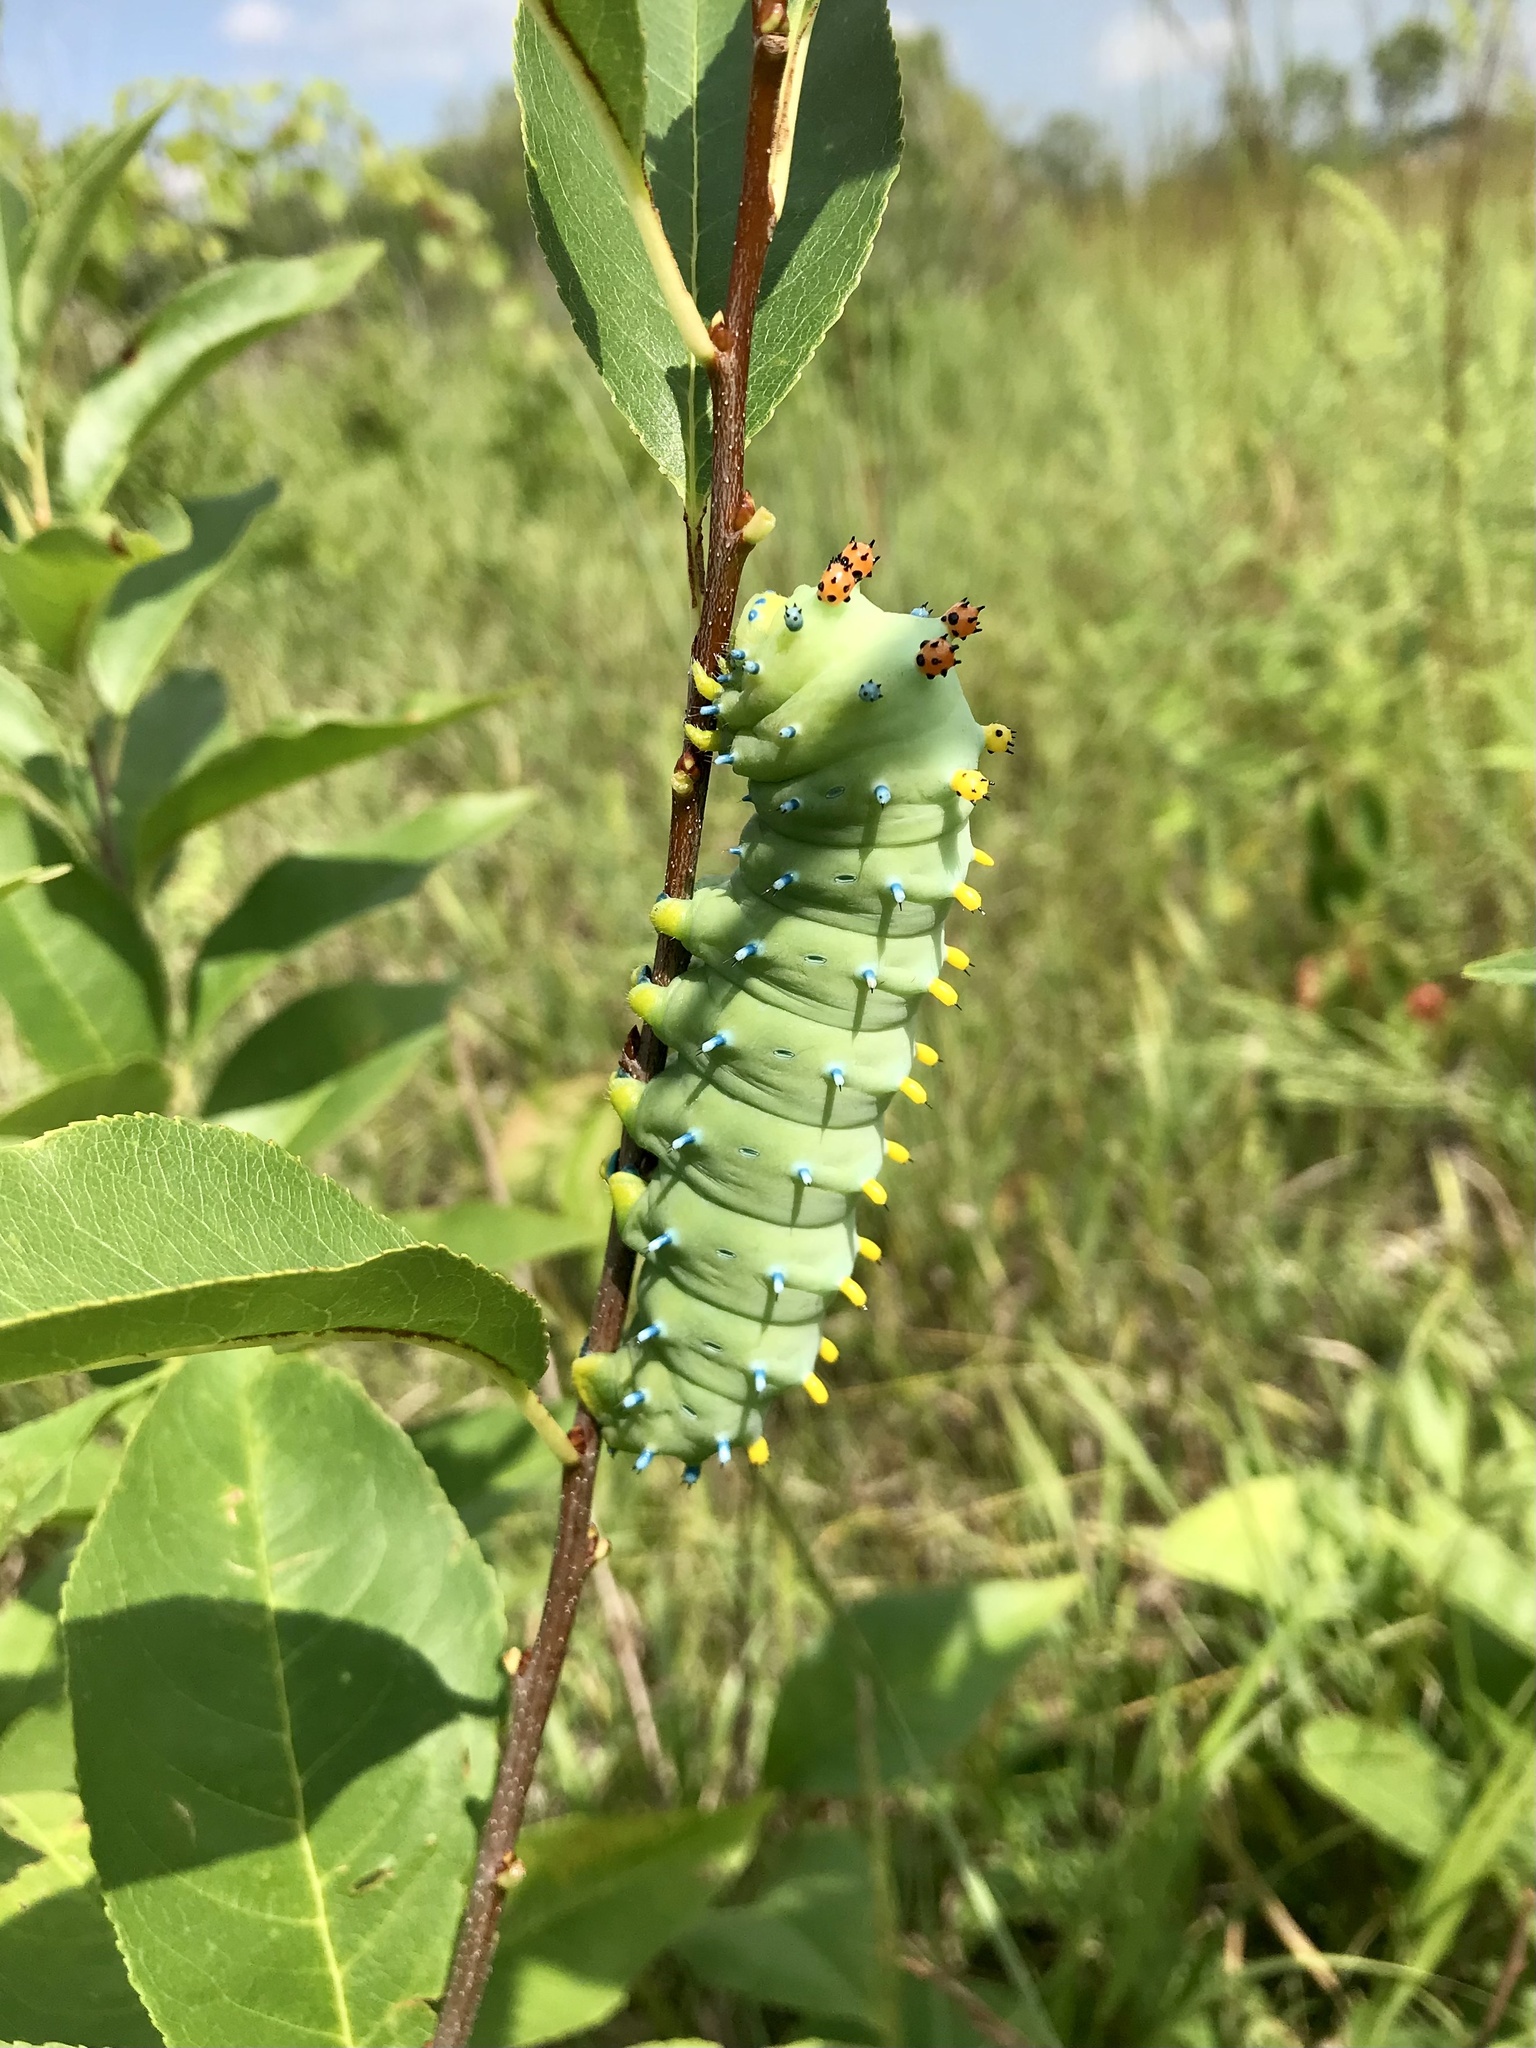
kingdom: Animalia
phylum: Arthropoda
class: Insecta
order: Lepidoptera
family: Saturniidae
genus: Hyalophora
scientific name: Hyalophora cecropia
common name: Cecropia silkmoth
